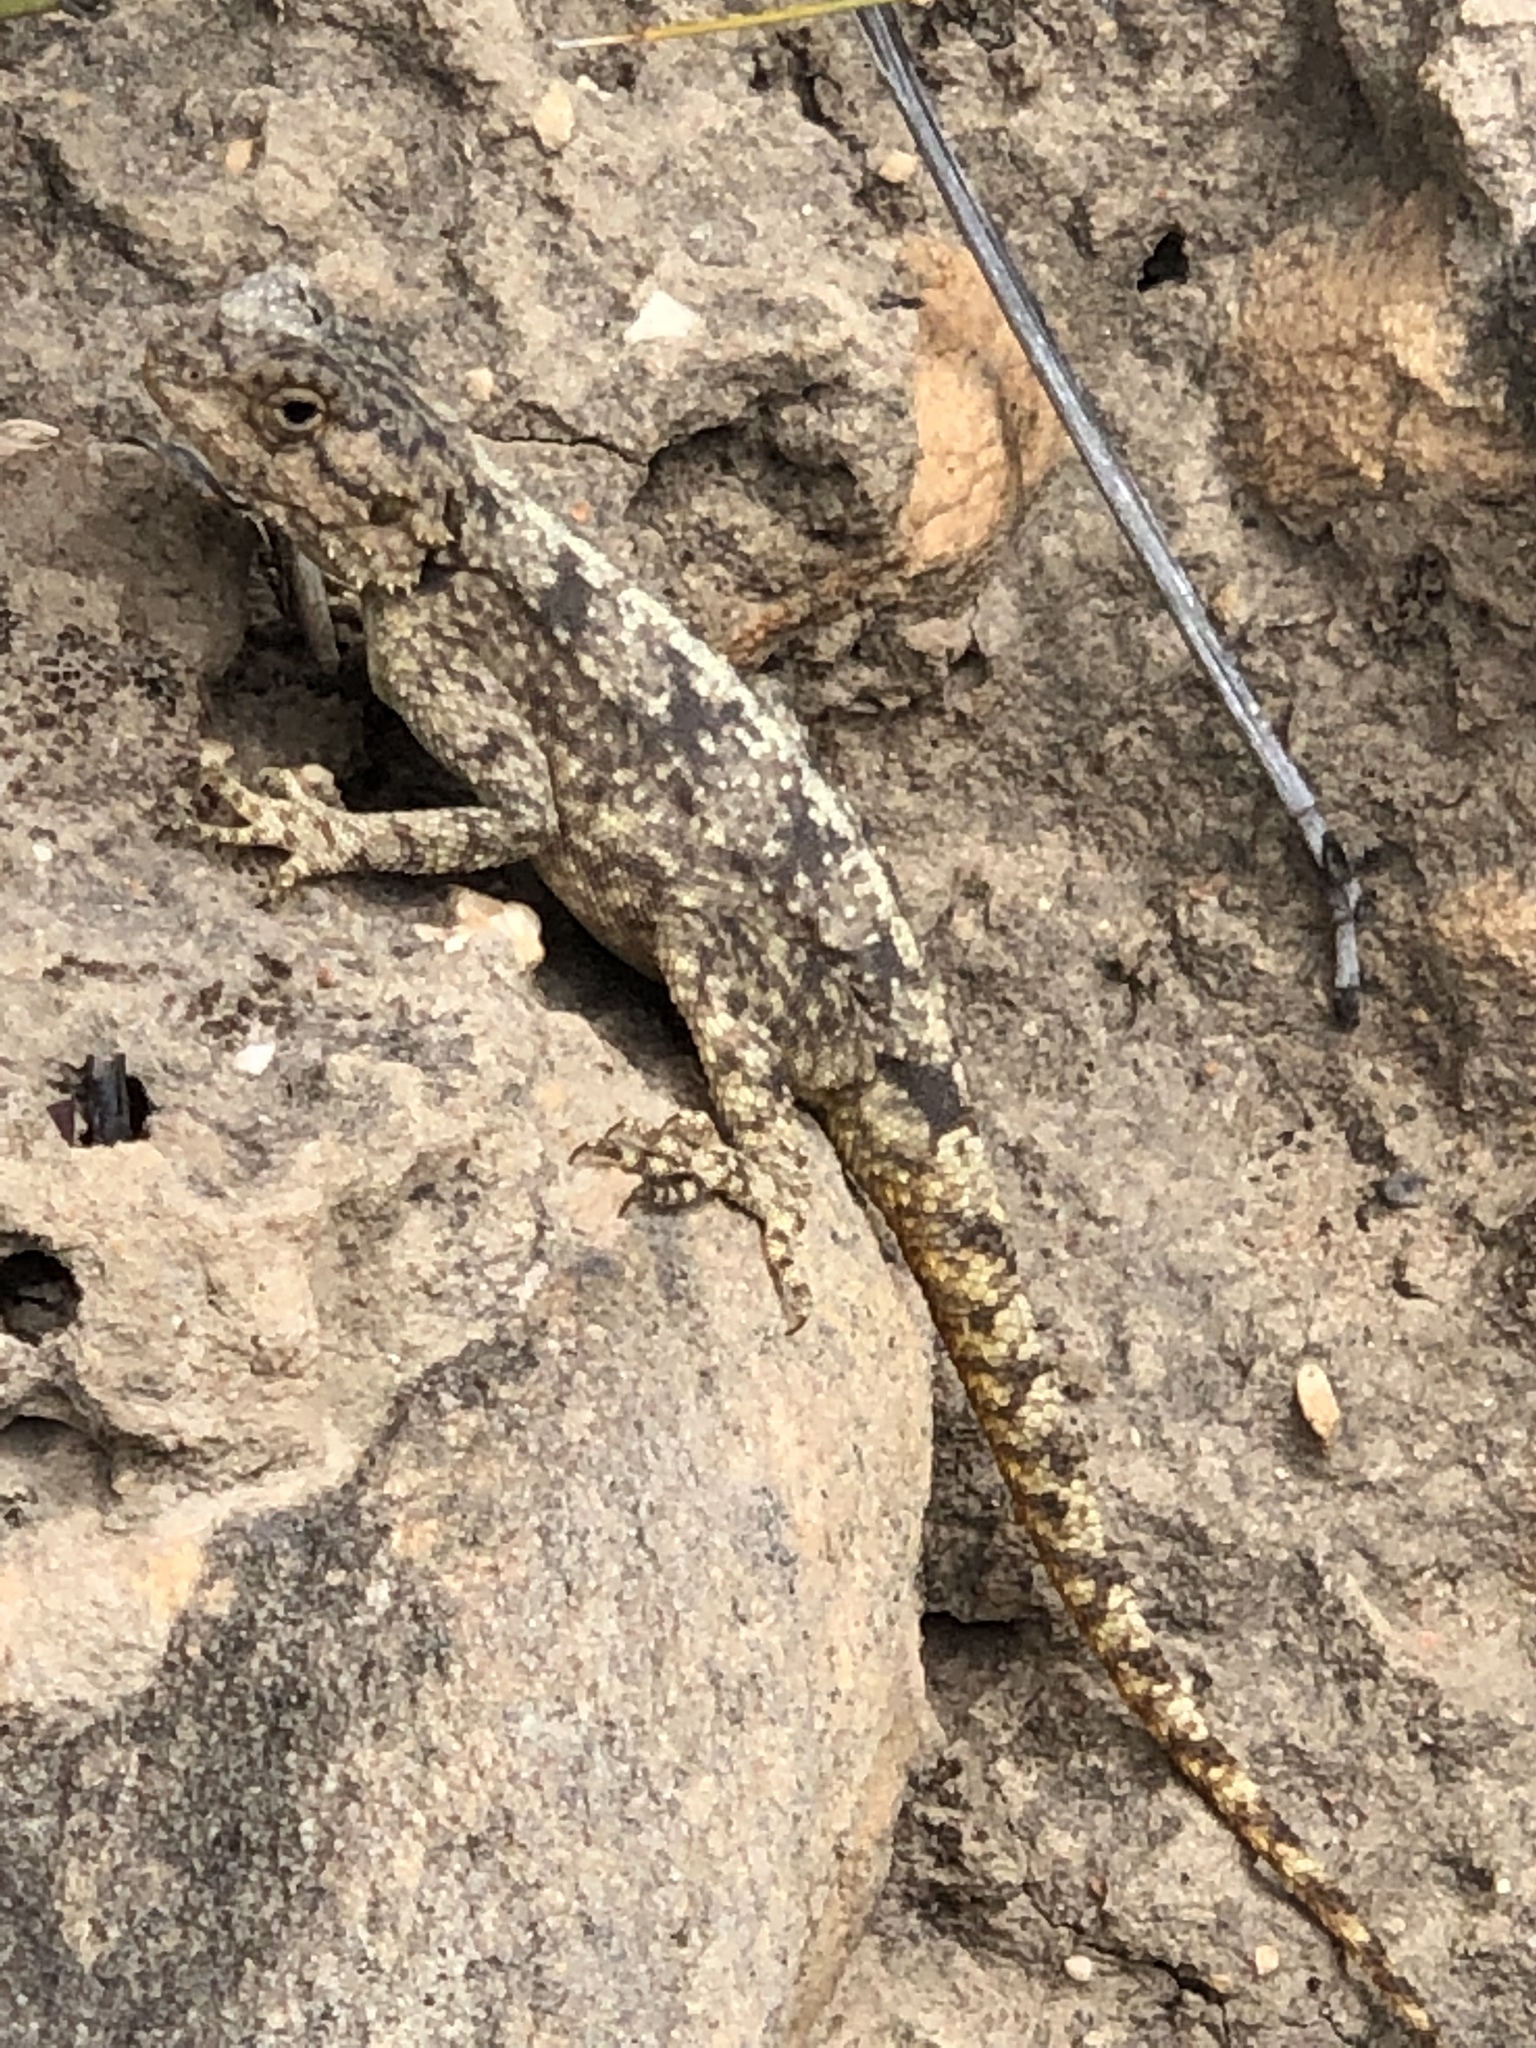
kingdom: Animalia
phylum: Chordata
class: Squamata
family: Agamidae
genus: Agama
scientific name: Agama atra
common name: Southern african rock agama
